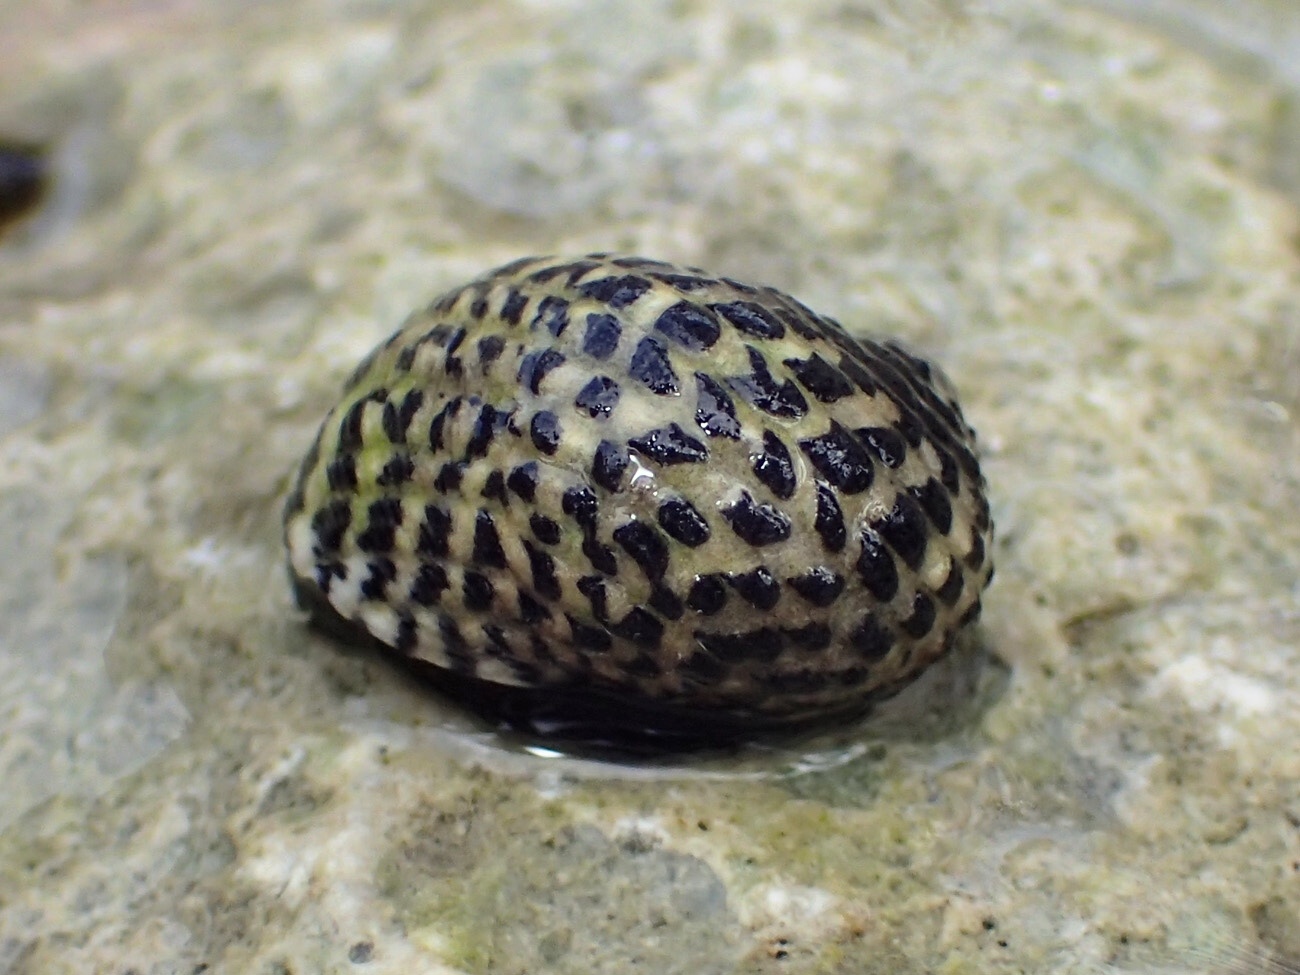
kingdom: Animalia
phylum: Mollusca
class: Gastropoda
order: Cycloneritida
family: Neritidae
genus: Nerita
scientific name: Nerita tessellata
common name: Checkered nerite
